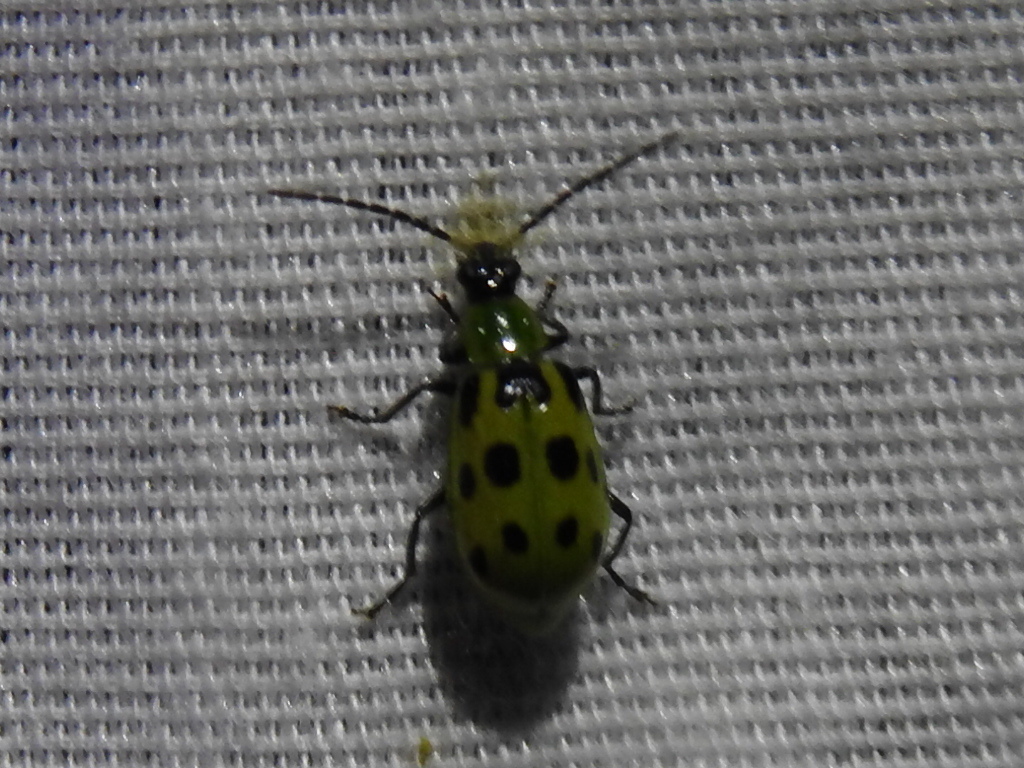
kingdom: Animalia
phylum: Arthropoda
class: Insecta
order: Coleoptera
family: Chrysomelidae
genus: Diabrotica
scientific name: Diabrotica undecimpunctata
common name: Spotted cucumber beetle
